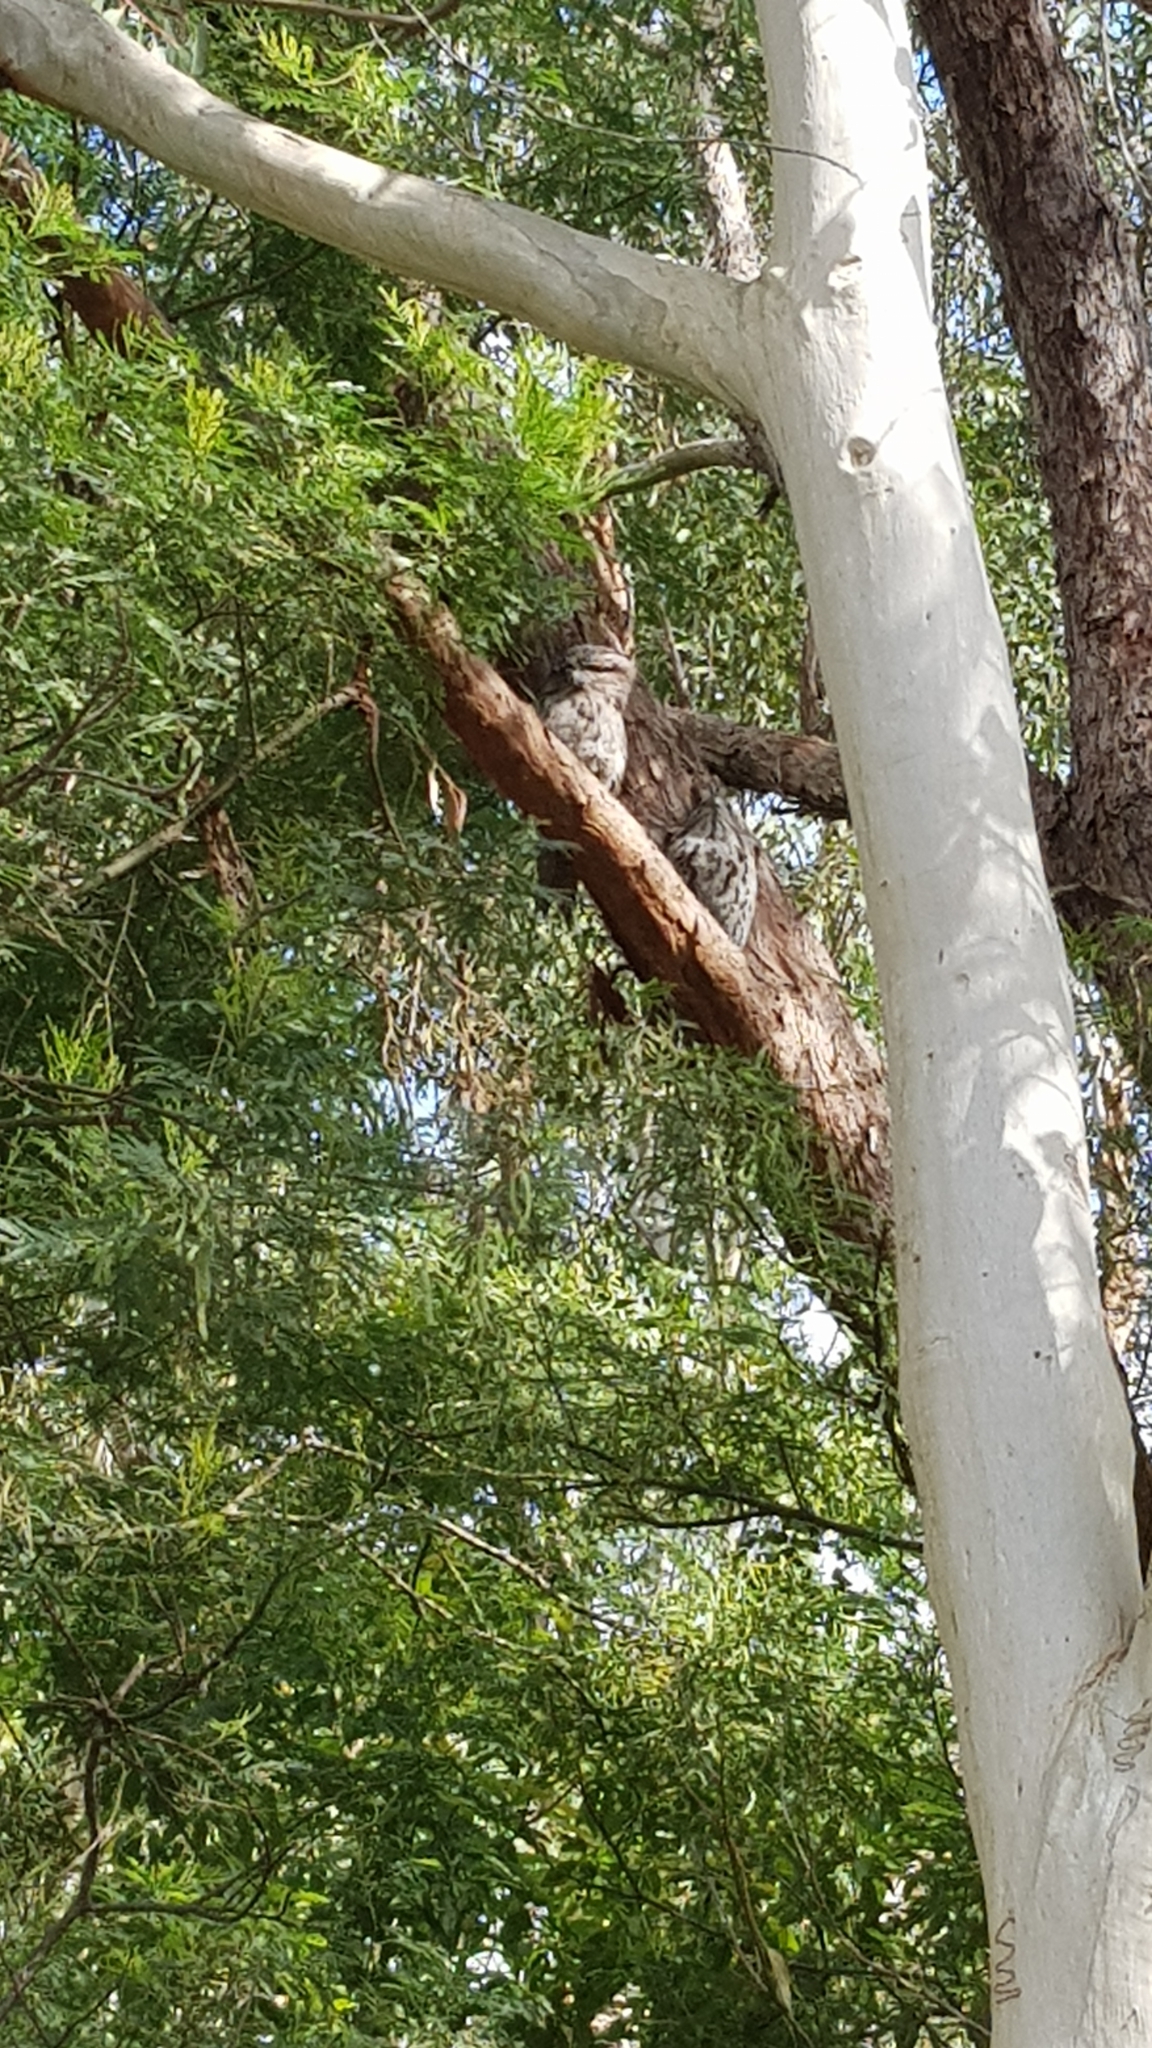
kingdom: Animalia
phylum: Chordata
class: Aves
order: Caprimulgiformes
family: Podargidae
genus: Podargus
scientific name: Podargus strigoides
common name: Tawny frogmouth
